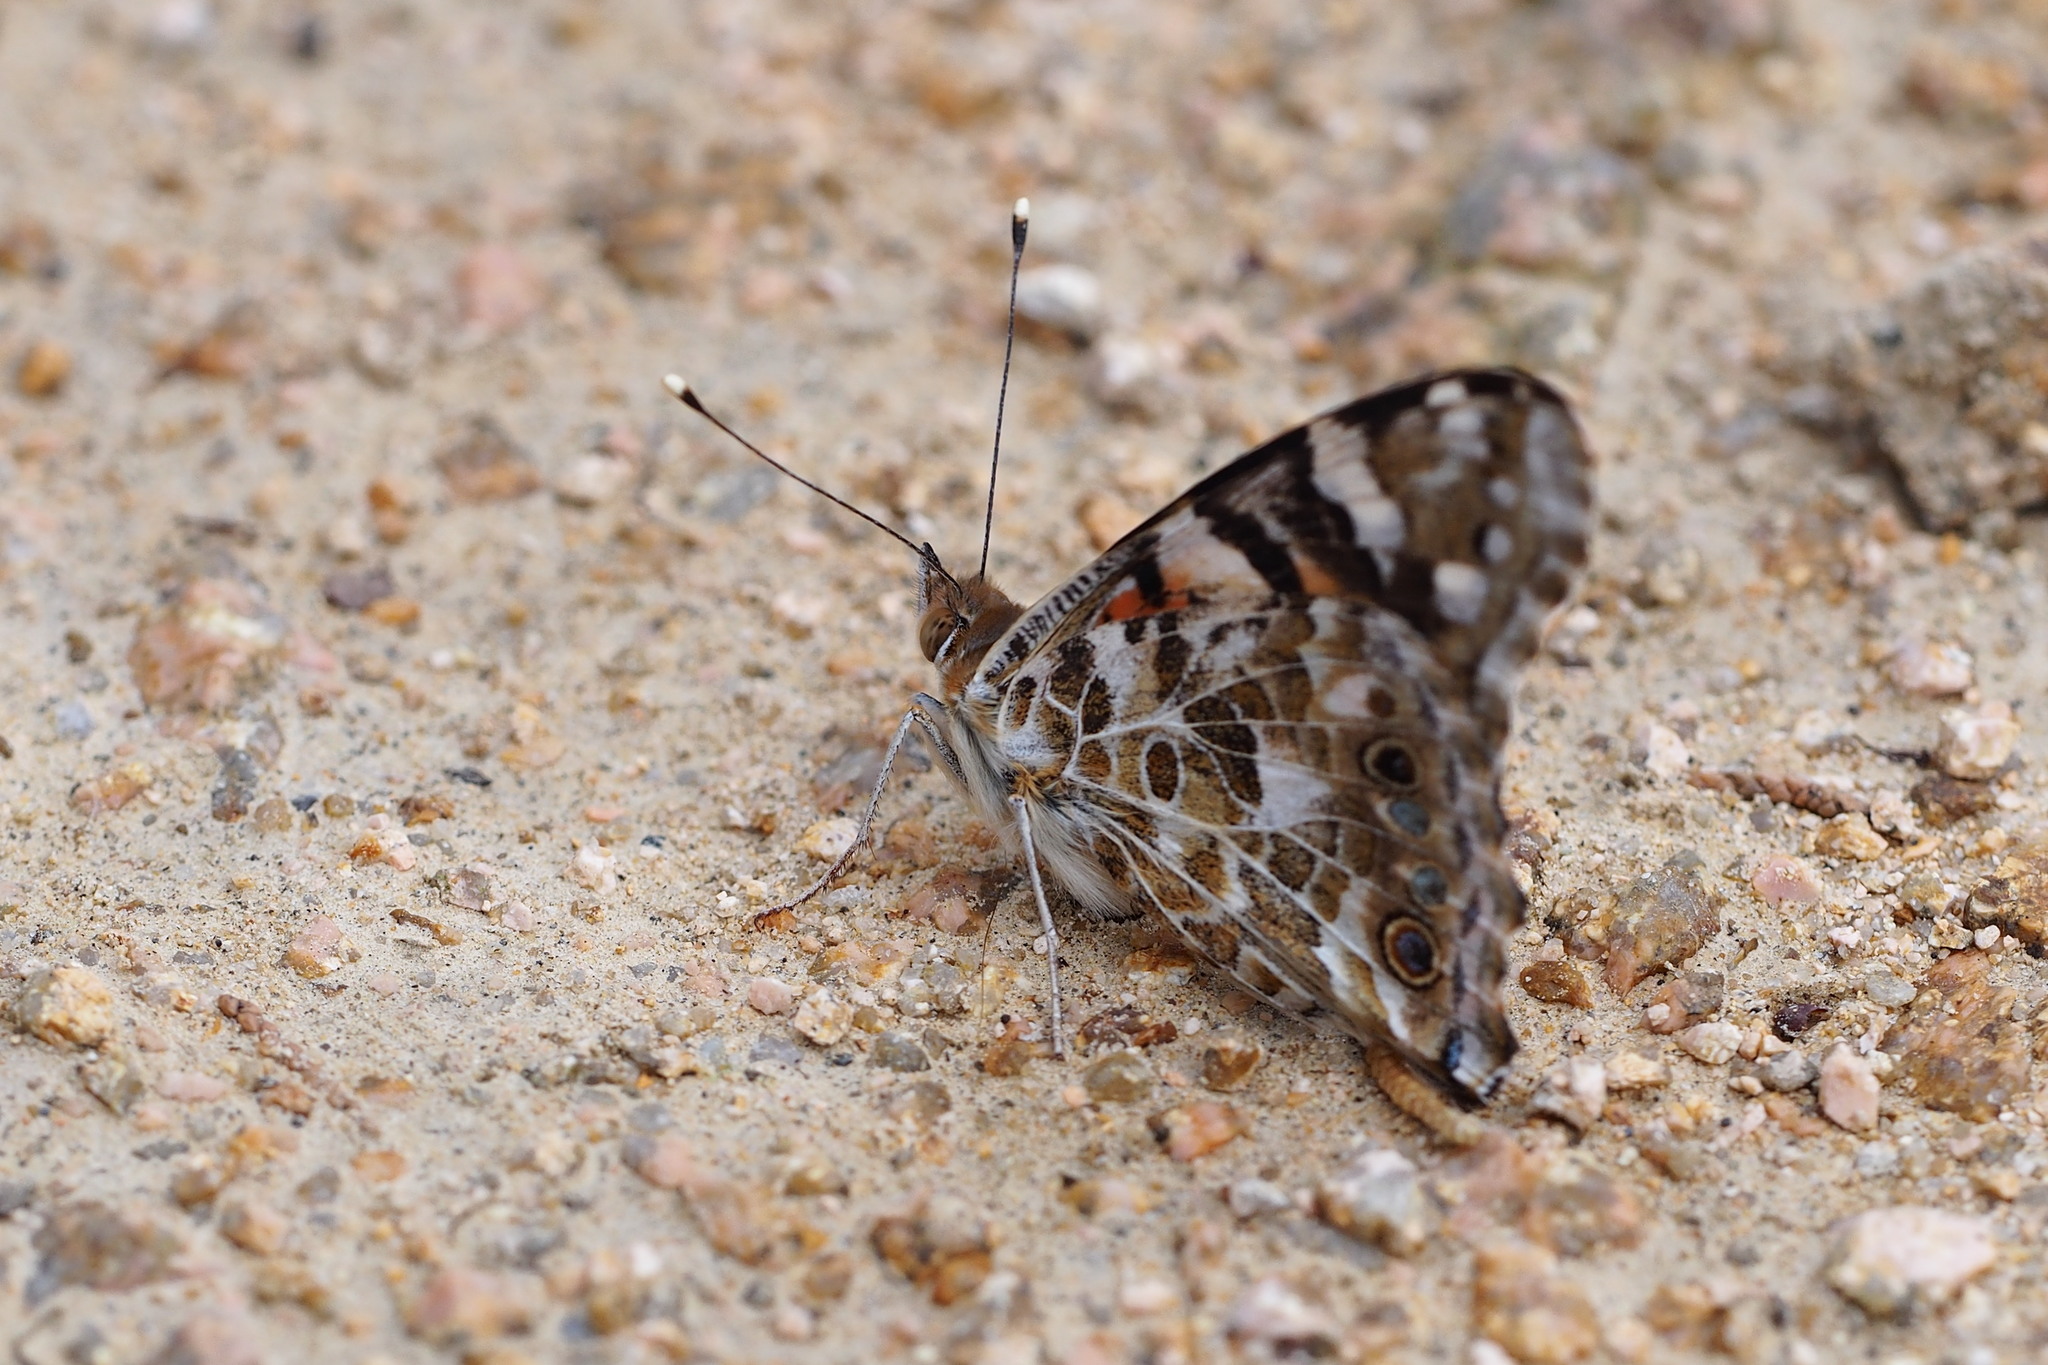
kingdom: Animalia
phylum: Arthropoda
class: Insecta
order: Lepidoptera
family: Nymphalidae
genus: Vanessa
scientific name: Vanessa cardui
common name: Painted lady
